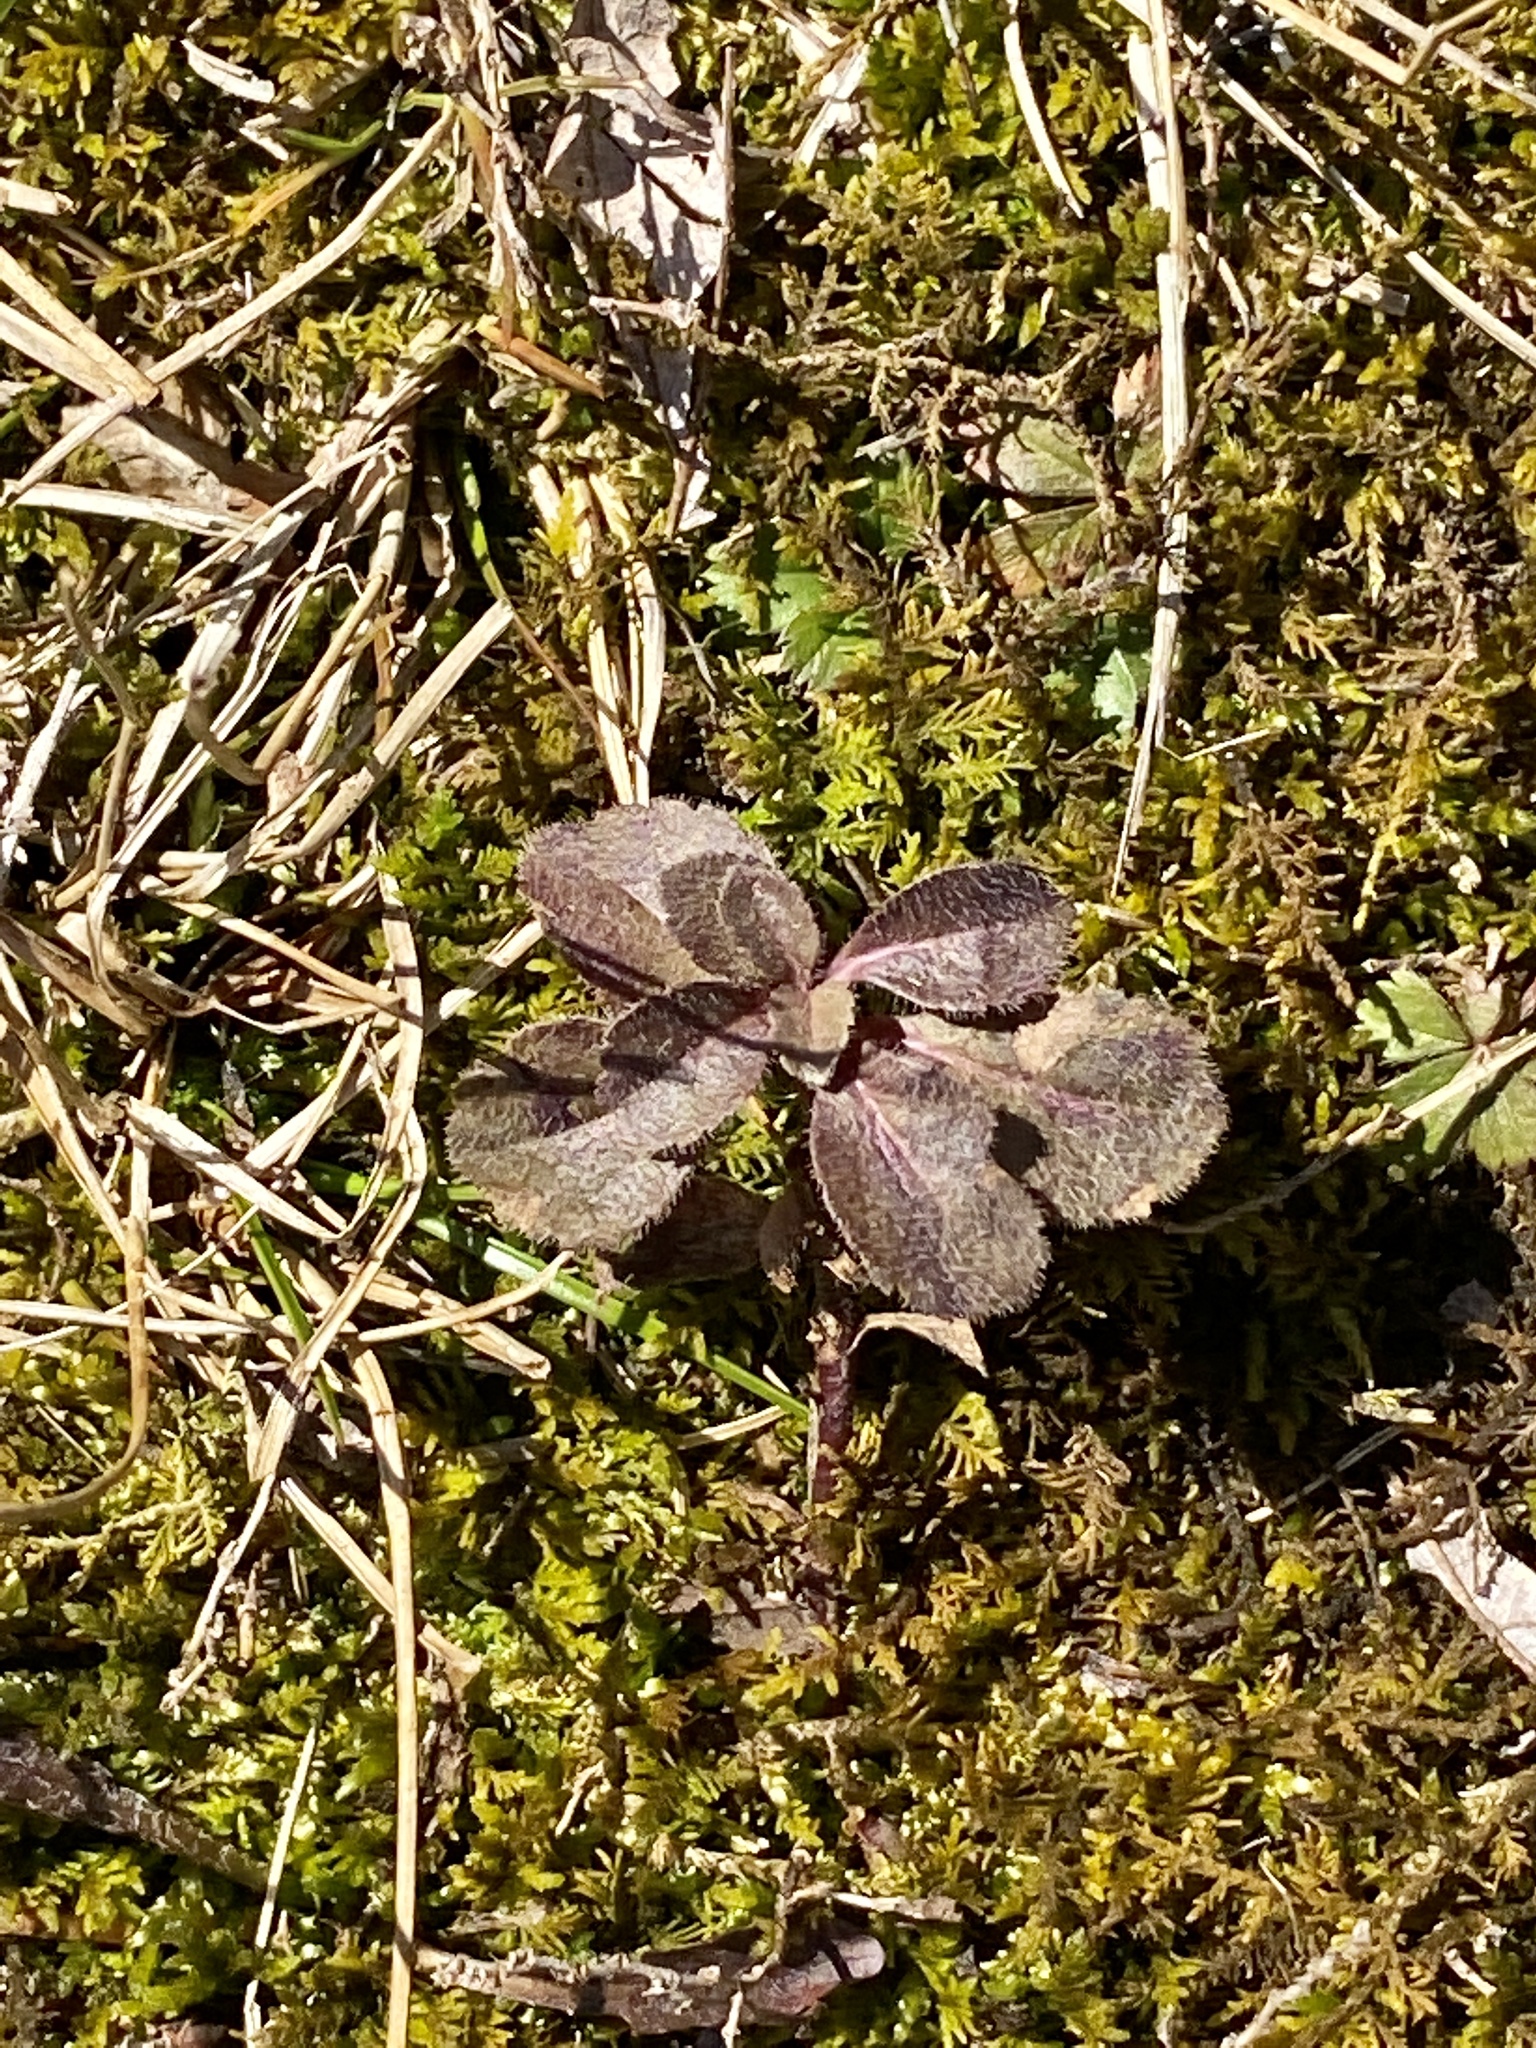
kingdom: Plantae
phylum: Tracheophyta
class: Magnoliopsida
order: Lamiales
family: Plantaginaceae
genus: Veronica
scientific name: Veronica officinalis
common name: Common speedwell
